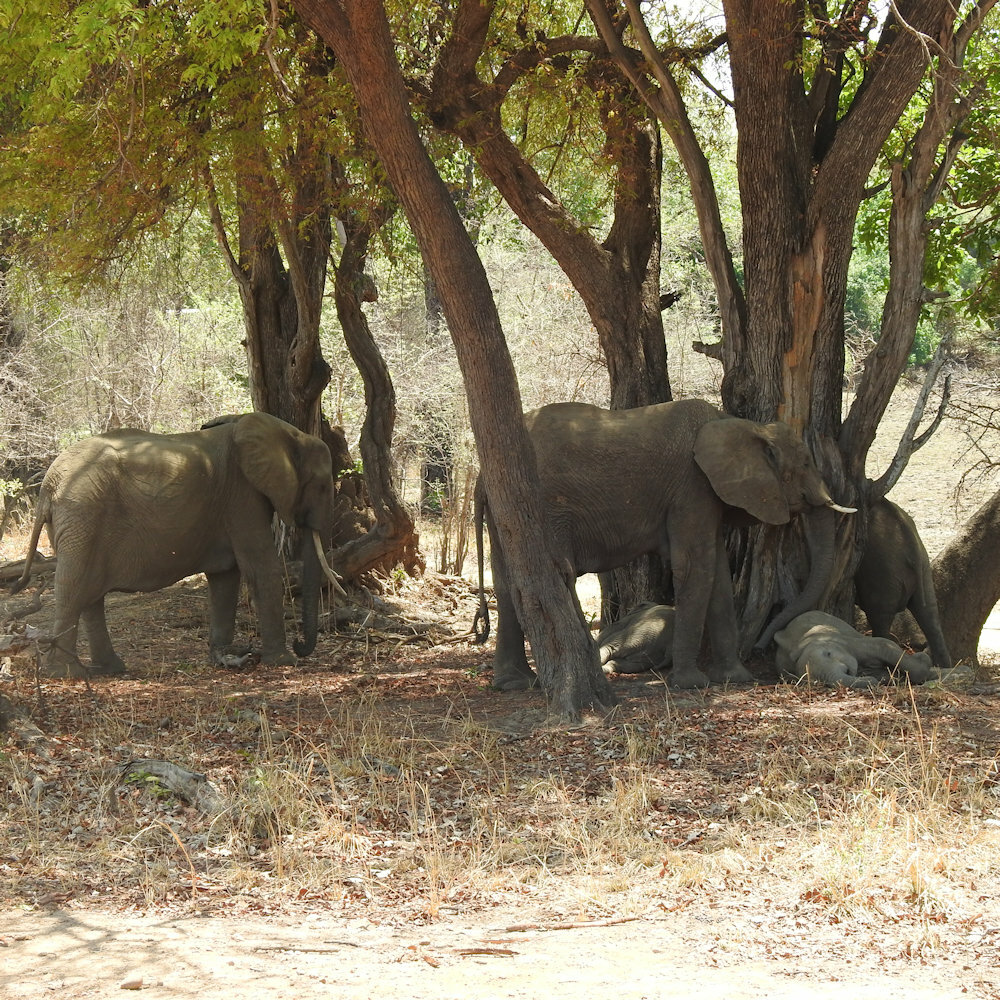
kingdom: Animalia
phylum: Chordata
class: Mammalia
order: Proboscidea
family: Elephantidae
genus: Loxodonta
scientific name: Loxodonta africana
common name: African elephant
